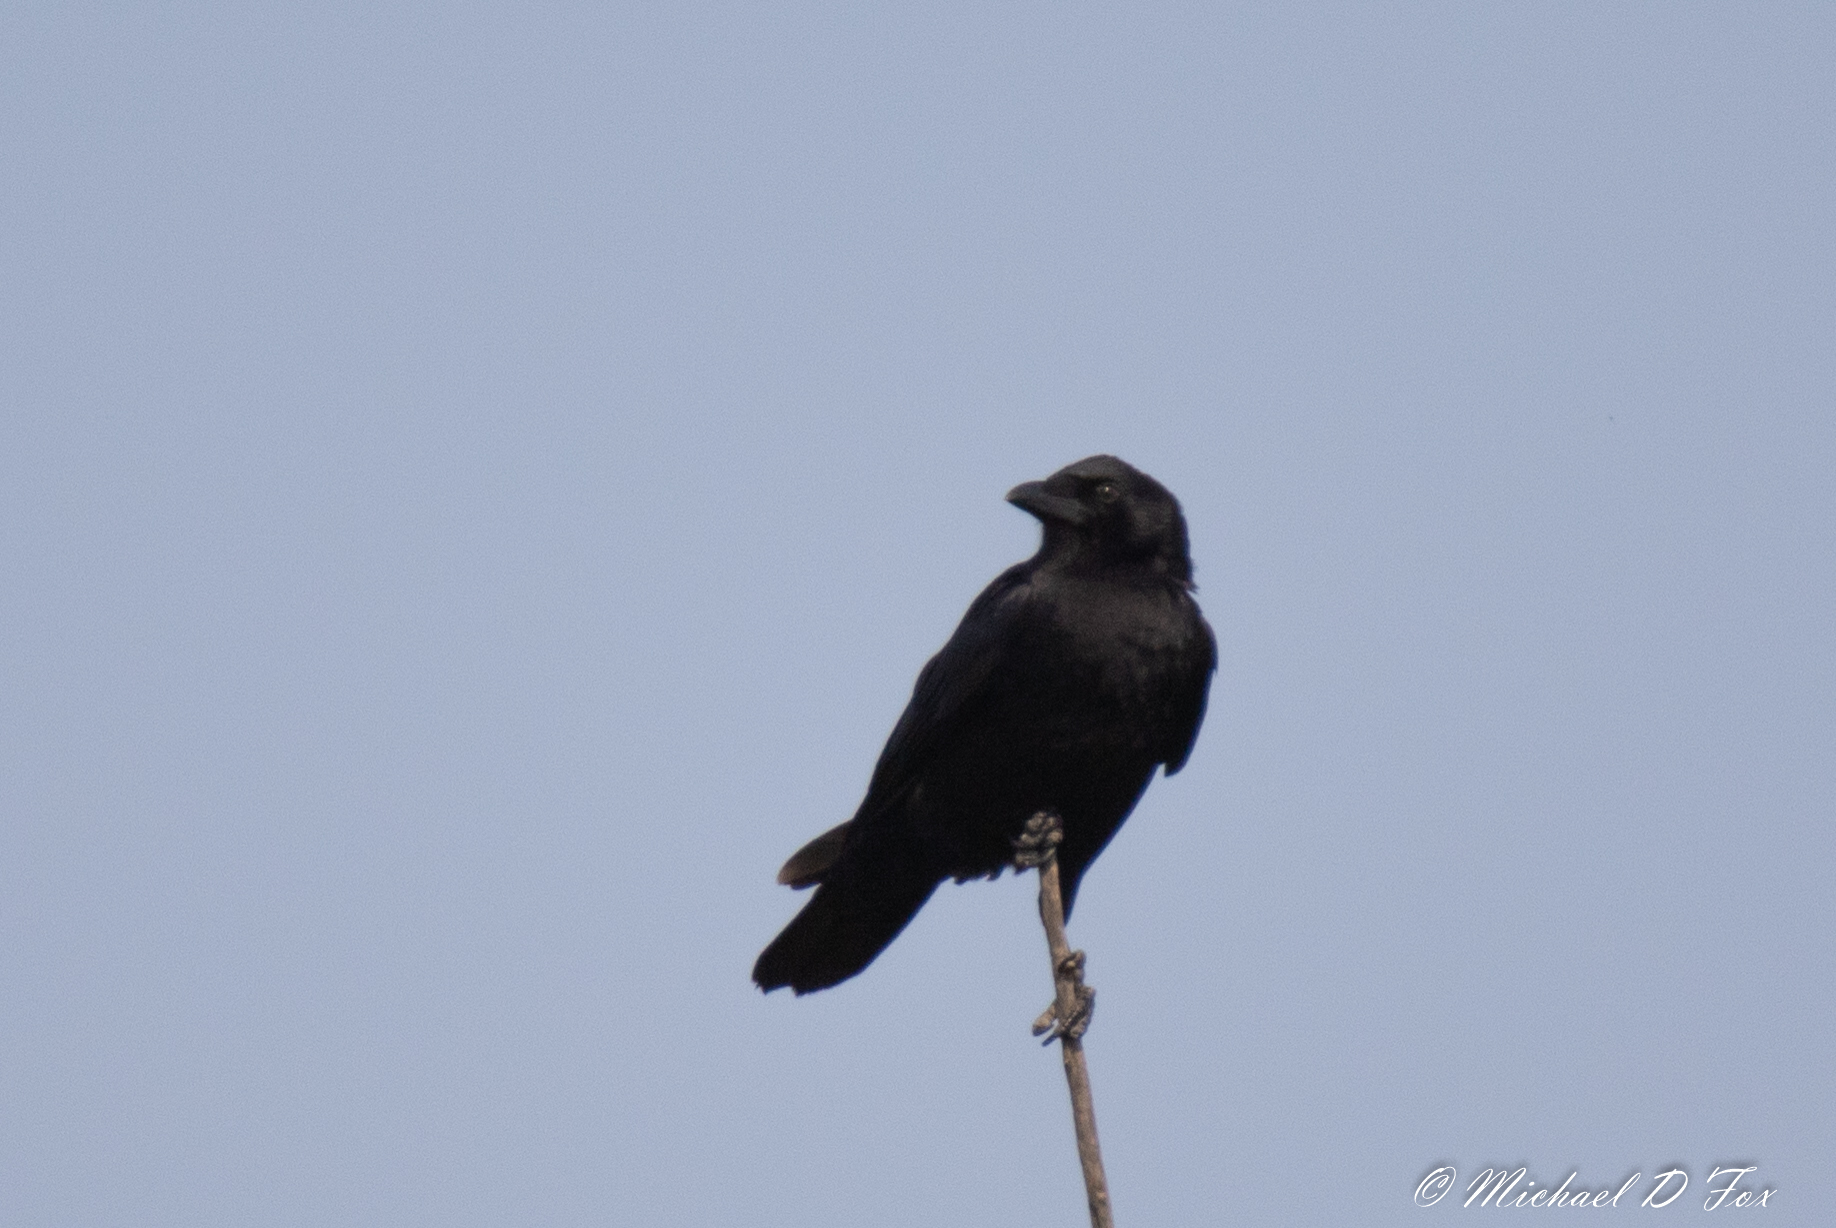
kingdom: Animalia
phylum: Chordata
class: Aves
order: Passeriformes
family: Corvidae
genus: Corvus
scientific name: Corvus brachyrhynchos
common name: American crow
